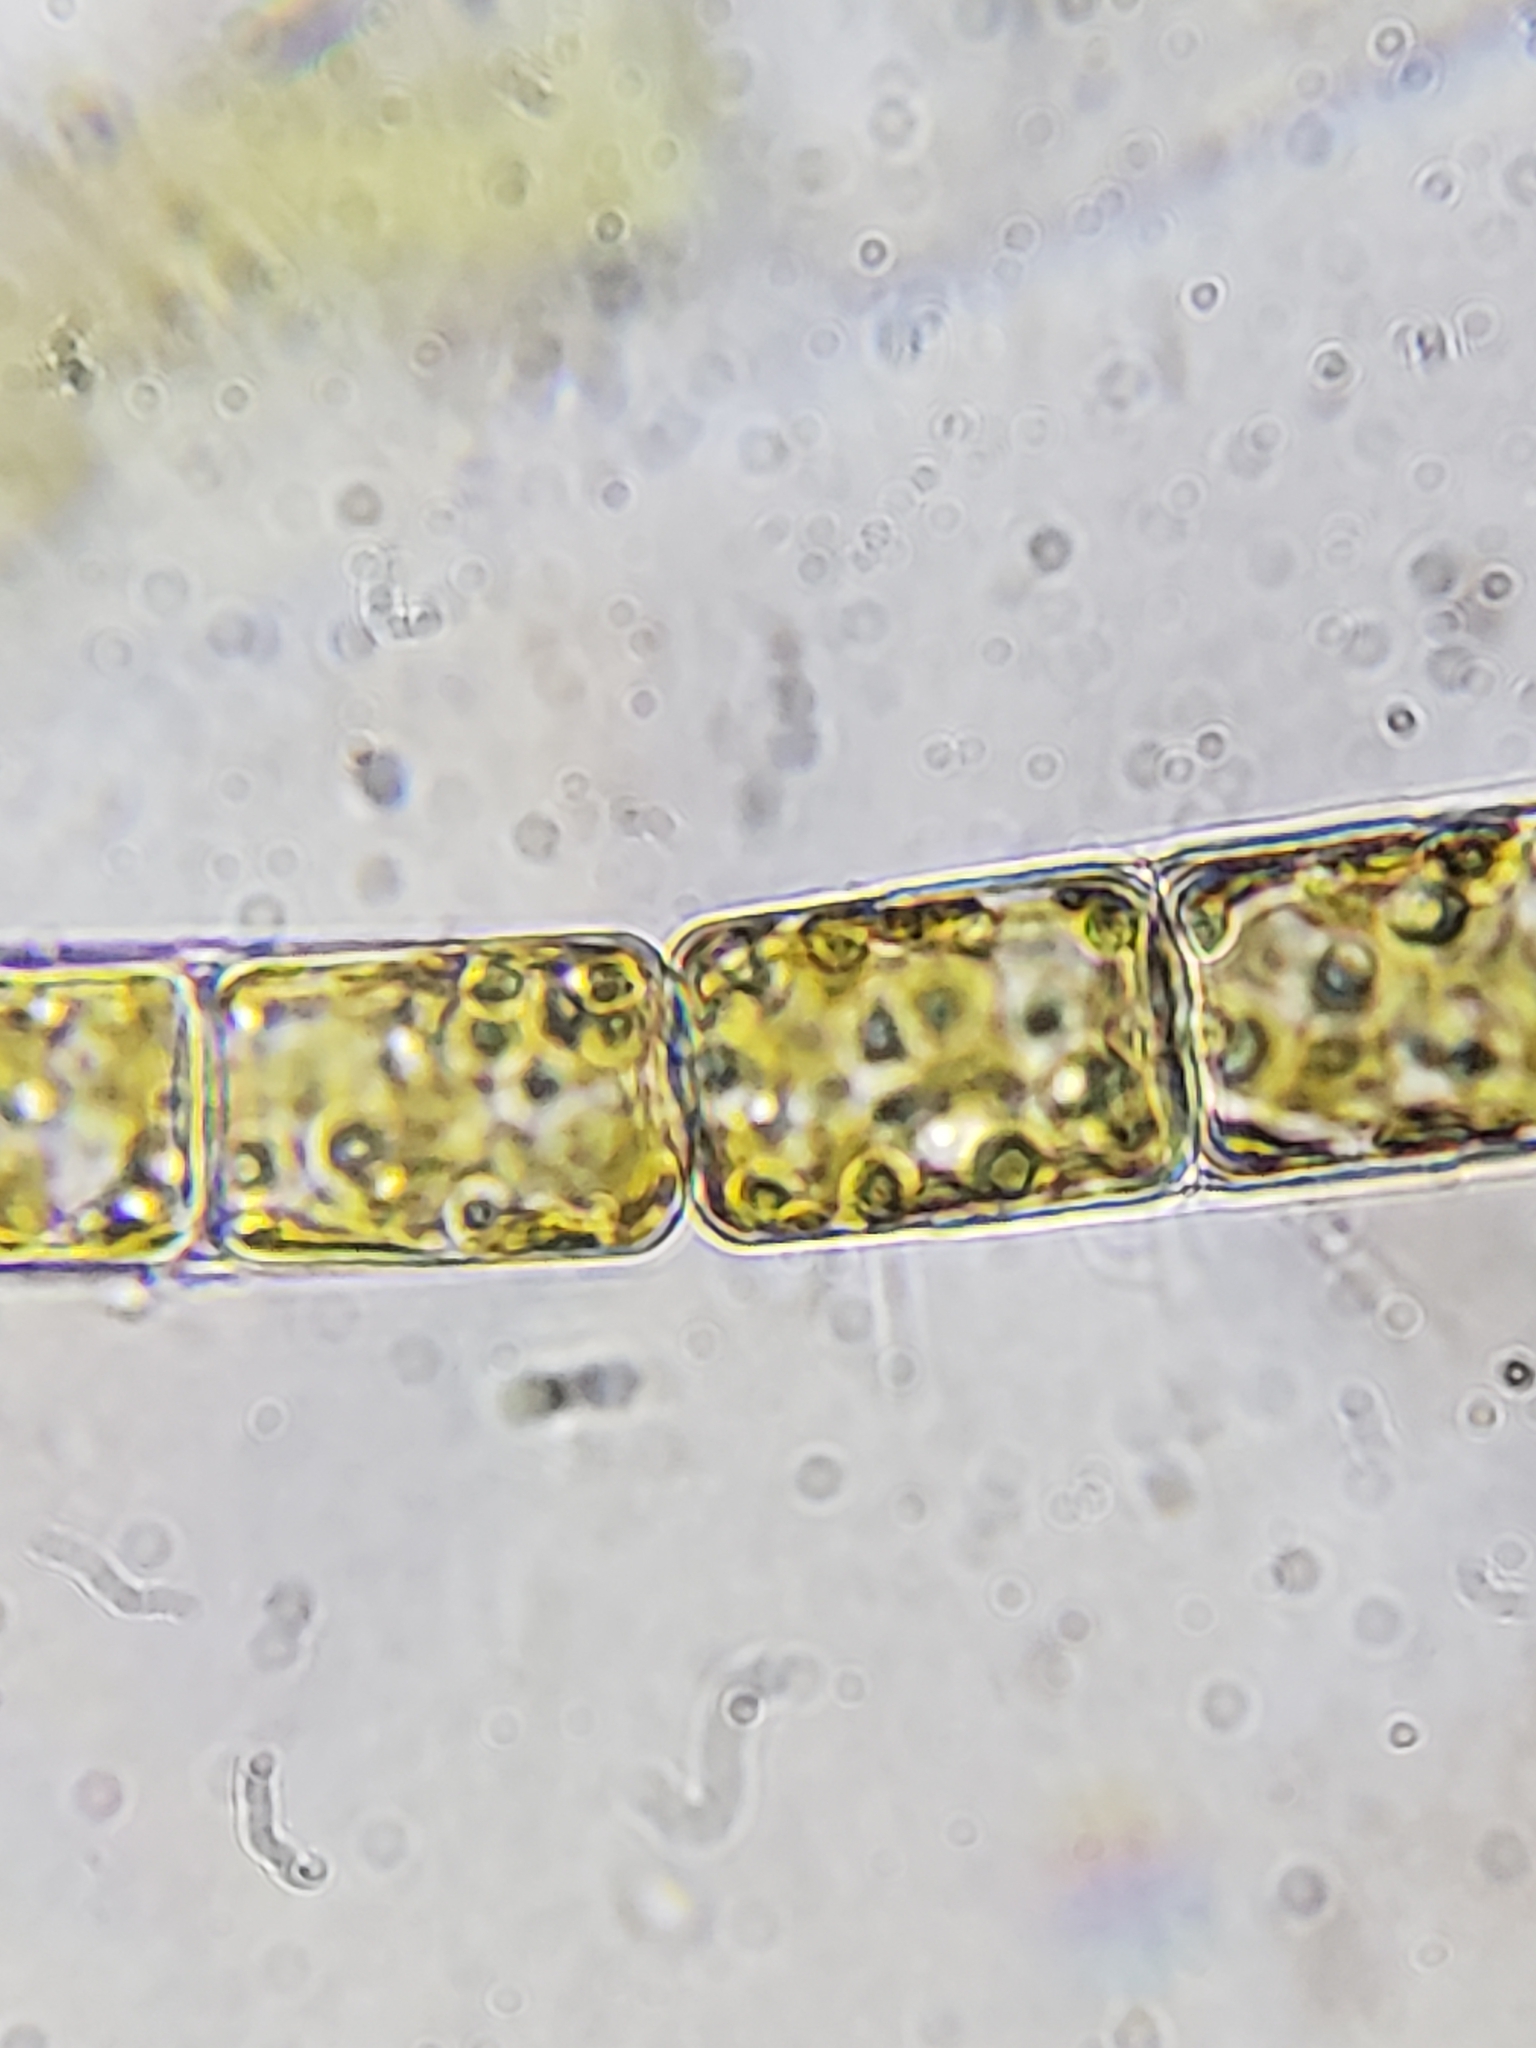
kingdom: Chromista
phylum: Ochrophyta
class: Bacillariophyceae
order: Melosirales
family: Melosiraceae
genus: Melosira
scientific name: Melosira varians
